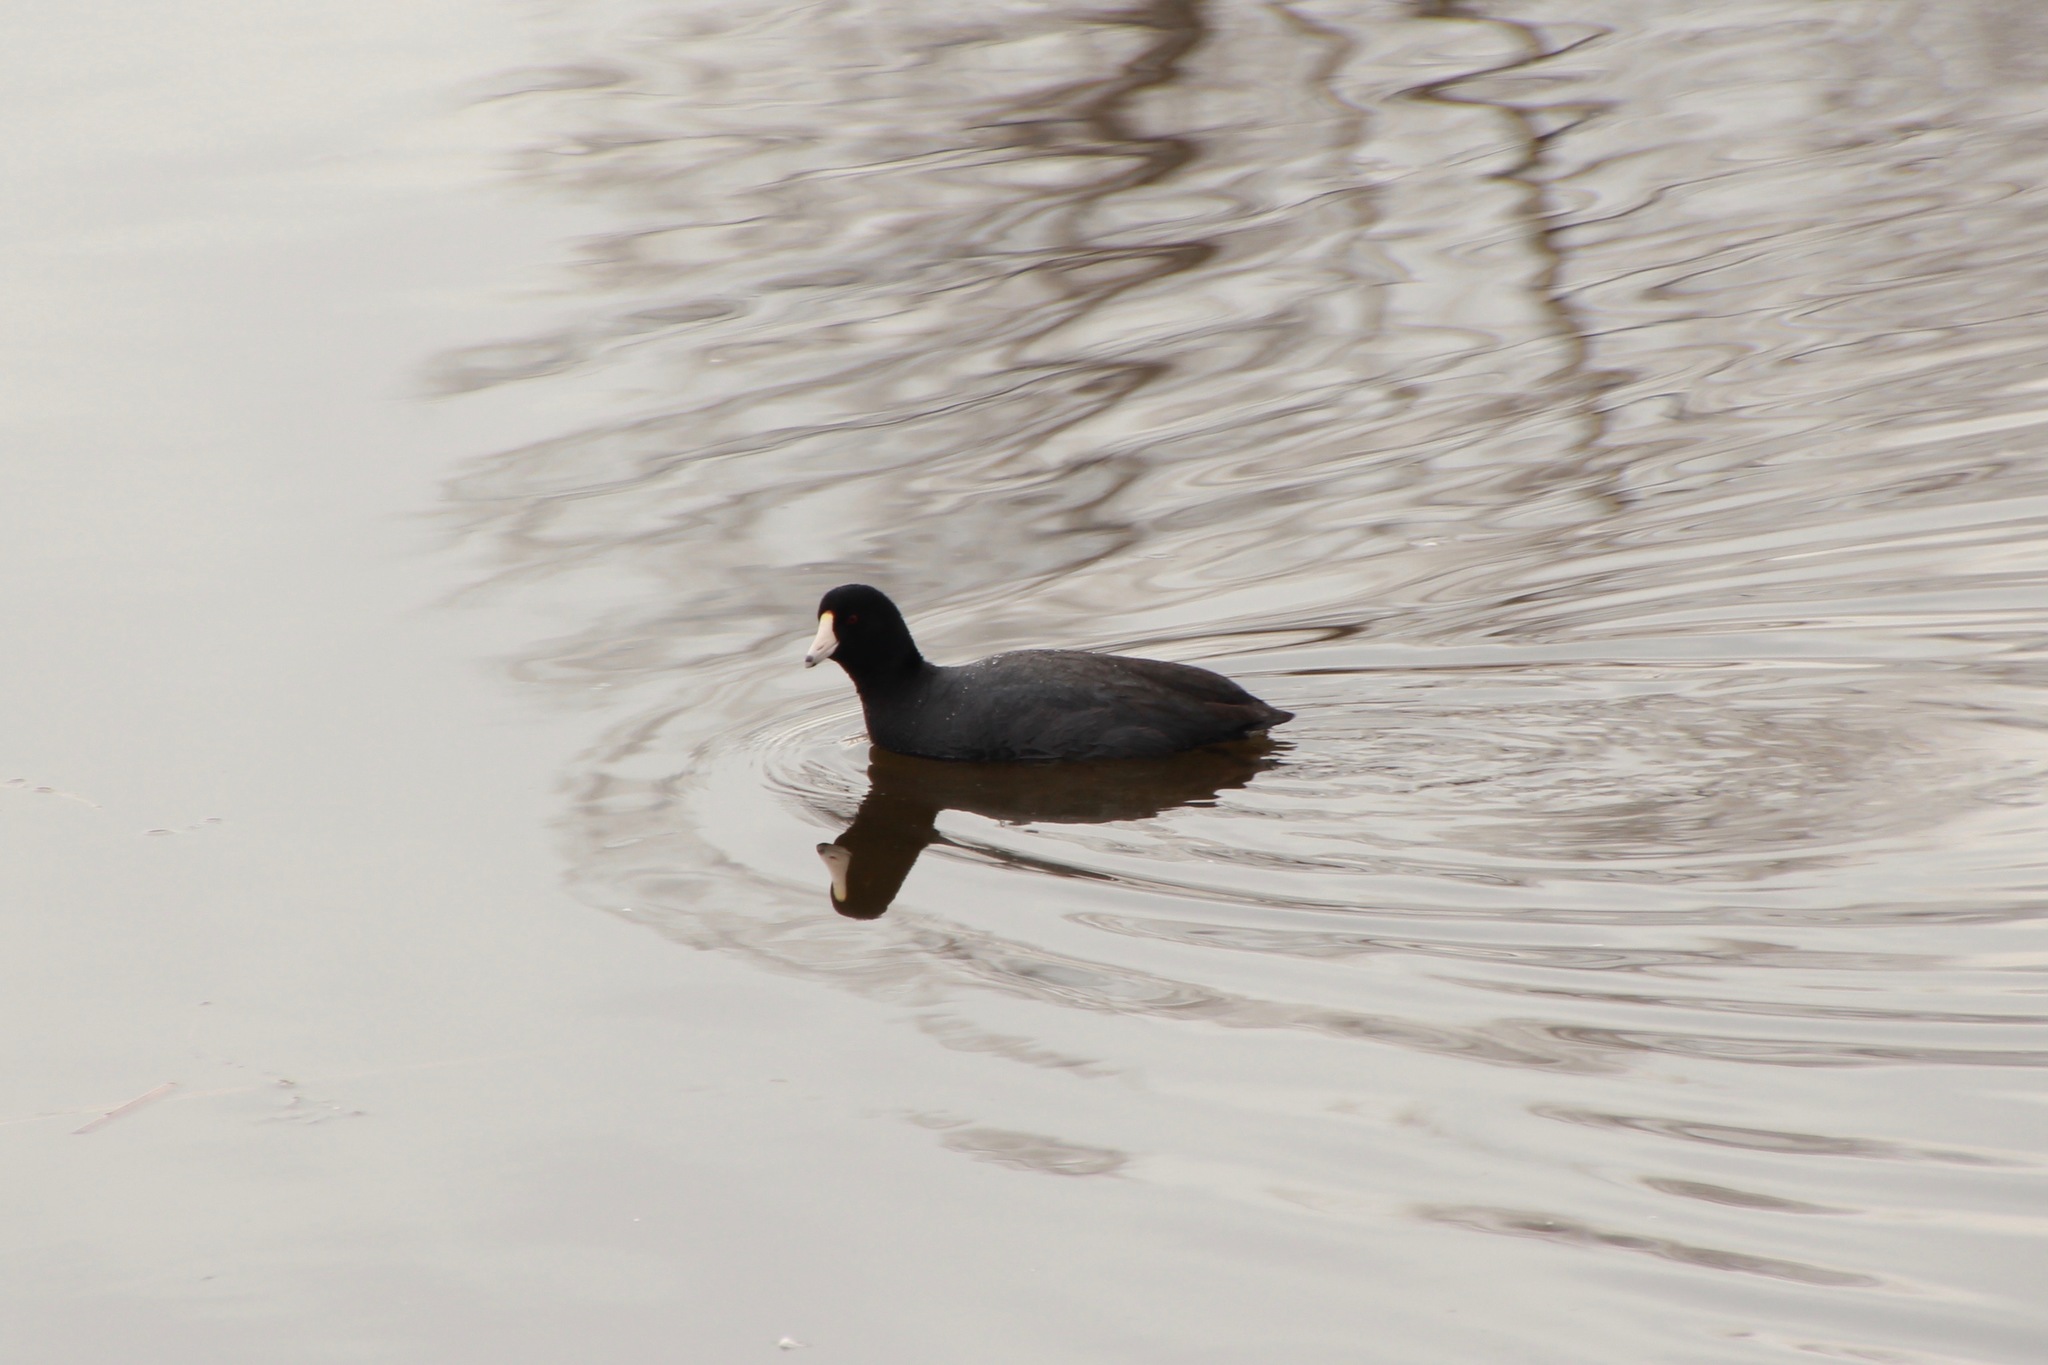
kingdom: Animalia
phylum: Chordata
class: Aves
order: Gruiformes
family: Rallidae
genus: Fulica
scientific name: Fulica americana
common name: American coot
